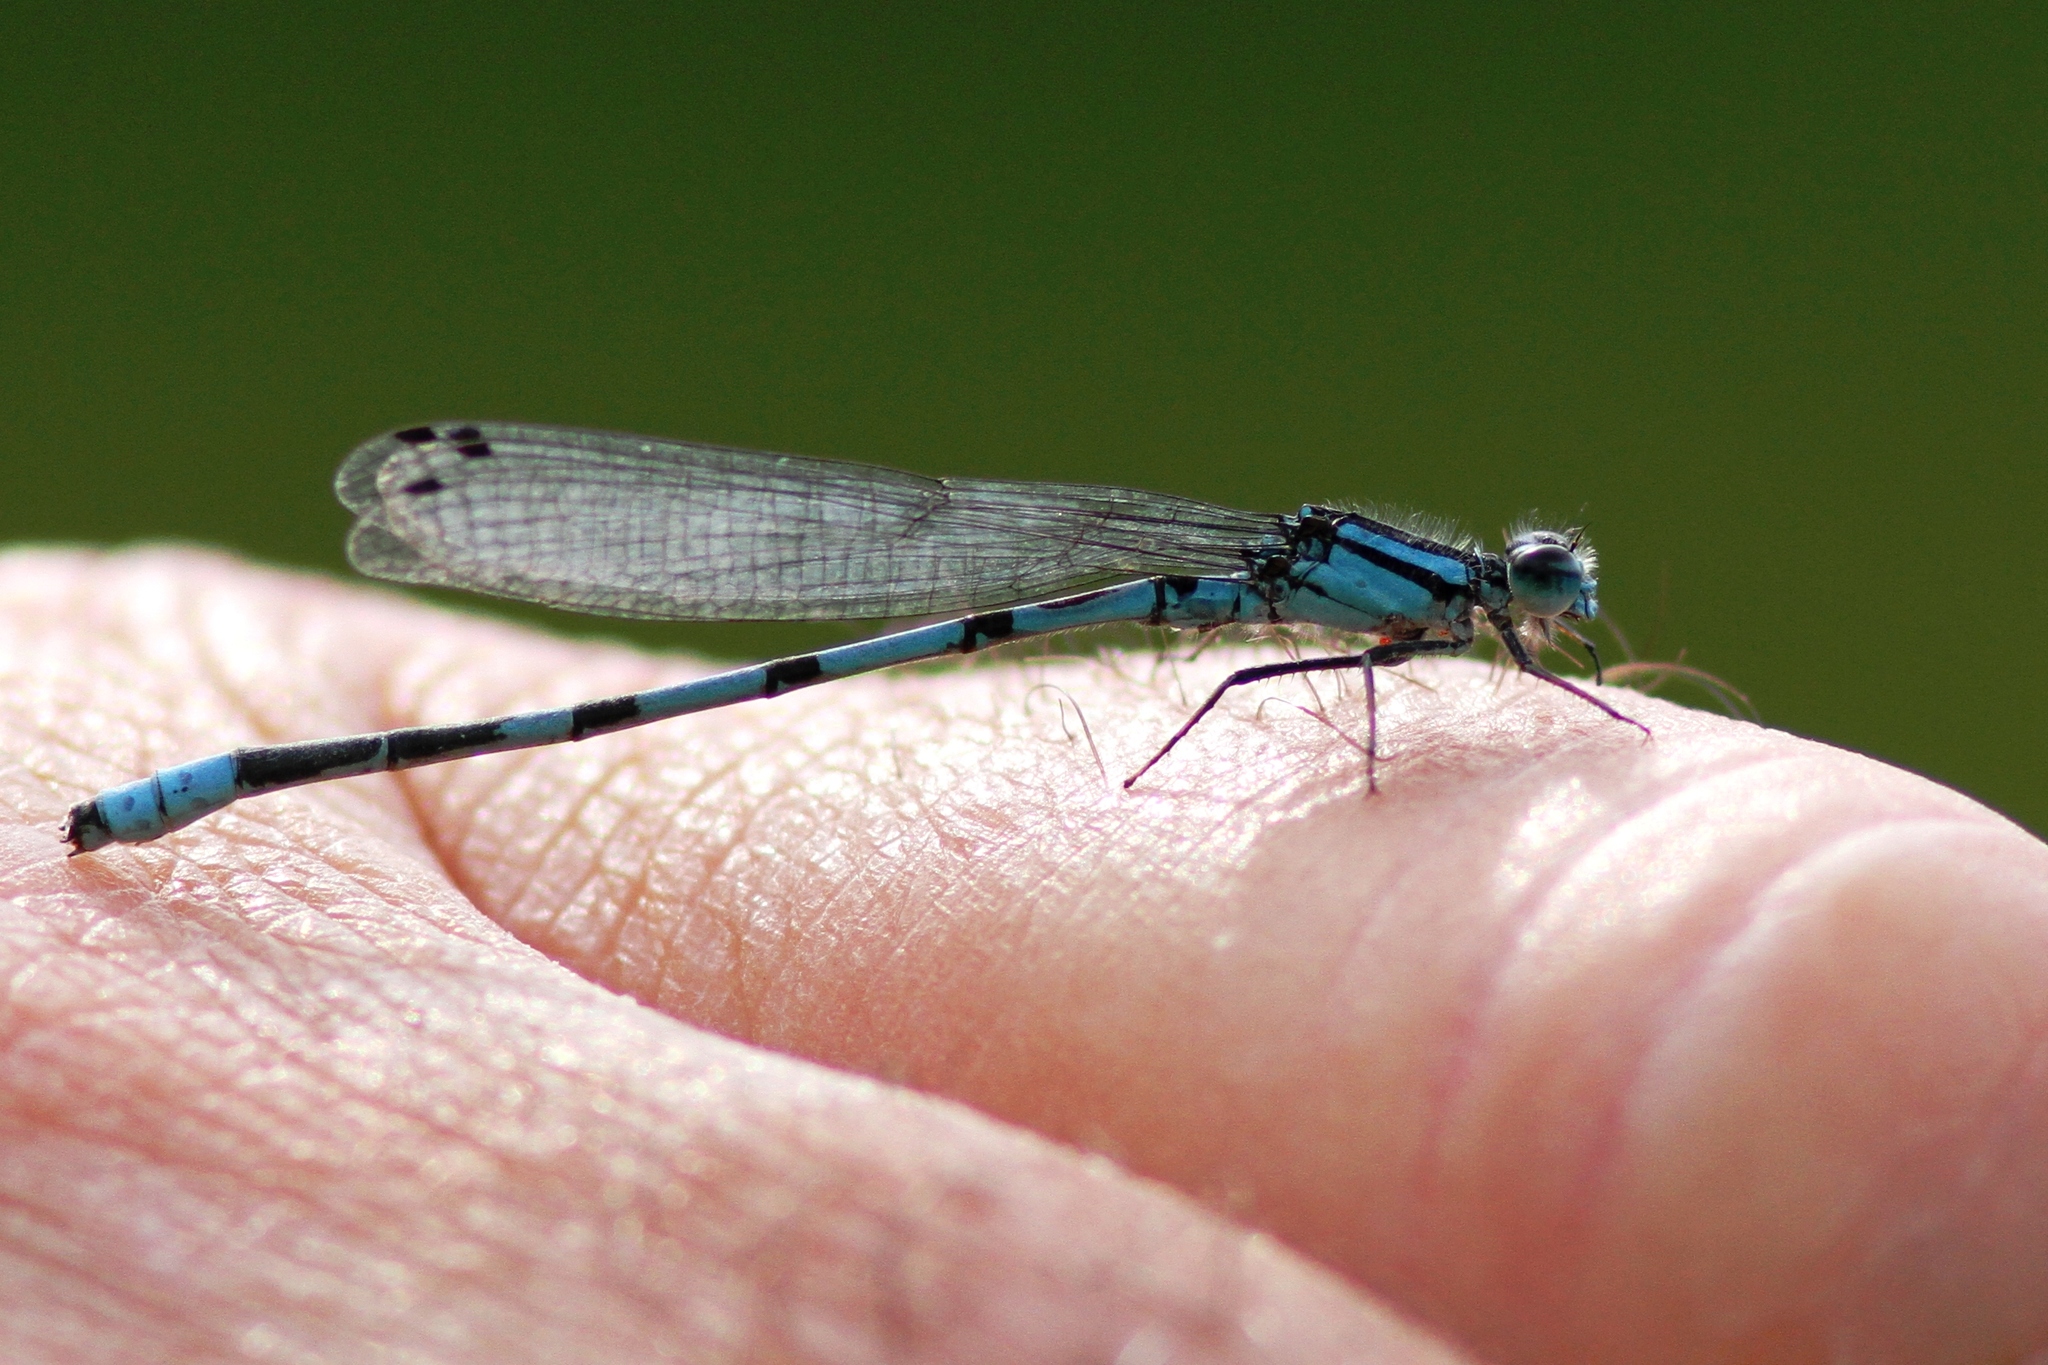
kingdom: Animalia
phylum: Arthropoda
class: Insecta
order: Odonata
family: Coenagrionidae
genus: Enallagma
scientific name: Enallagma hageni
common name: Hagen's bluet
